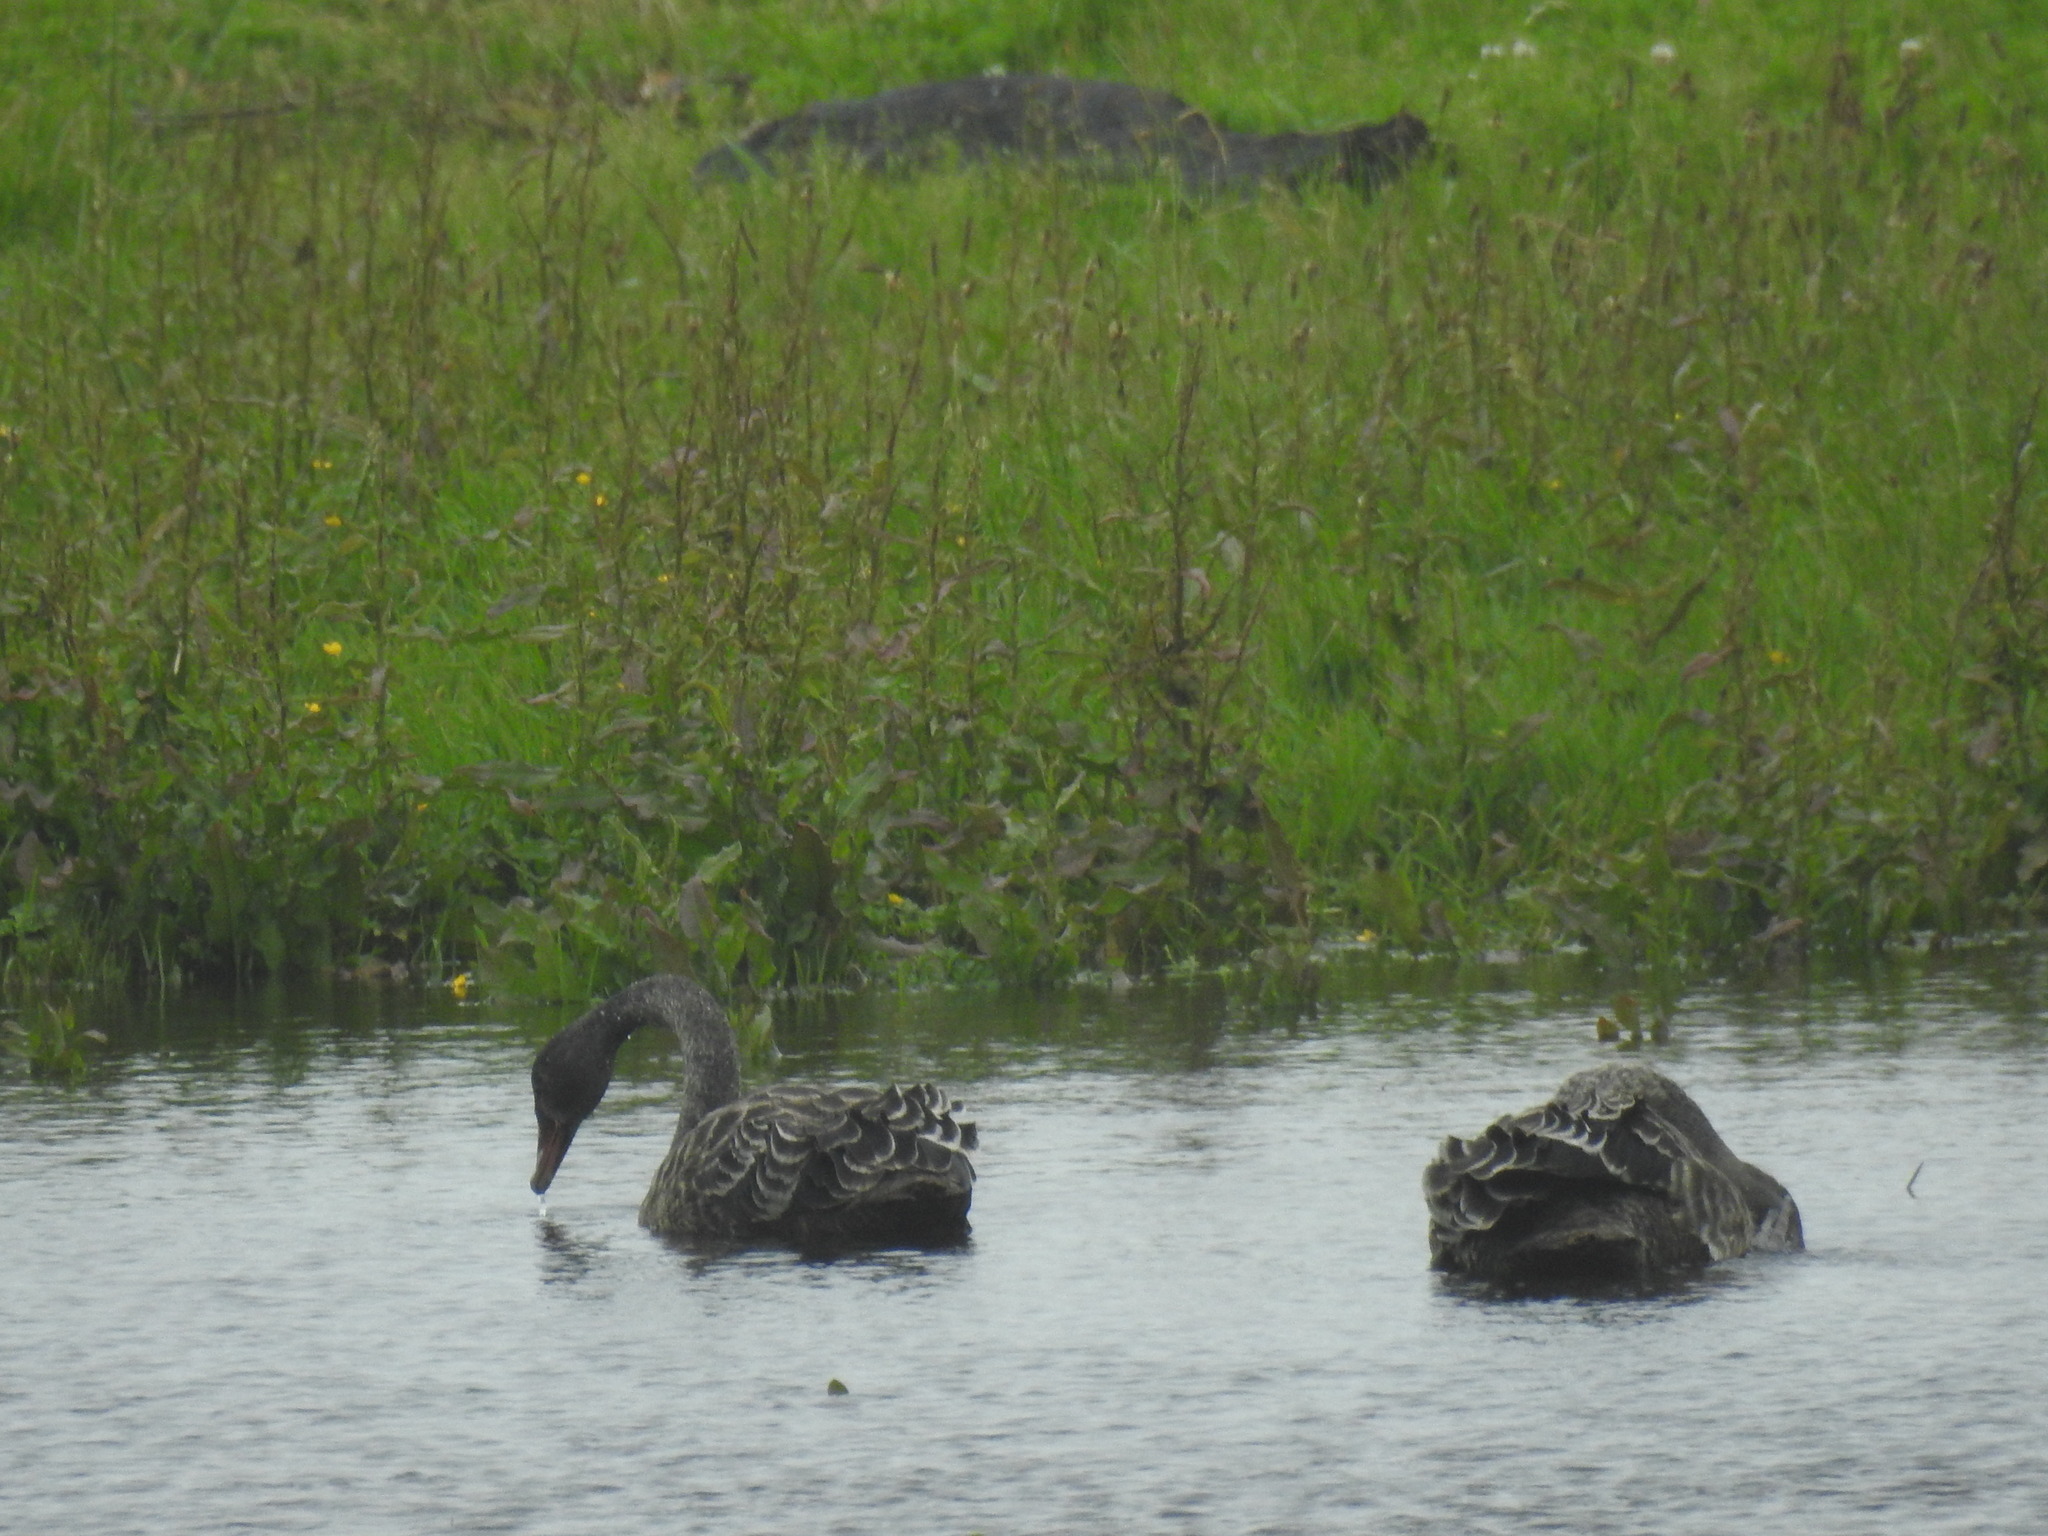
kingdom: Animalia
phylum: Chordata
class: Aves
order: Anseriformes
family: Anatidae
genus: Cygnus
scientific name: Cygnus atratus
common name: Black swan
